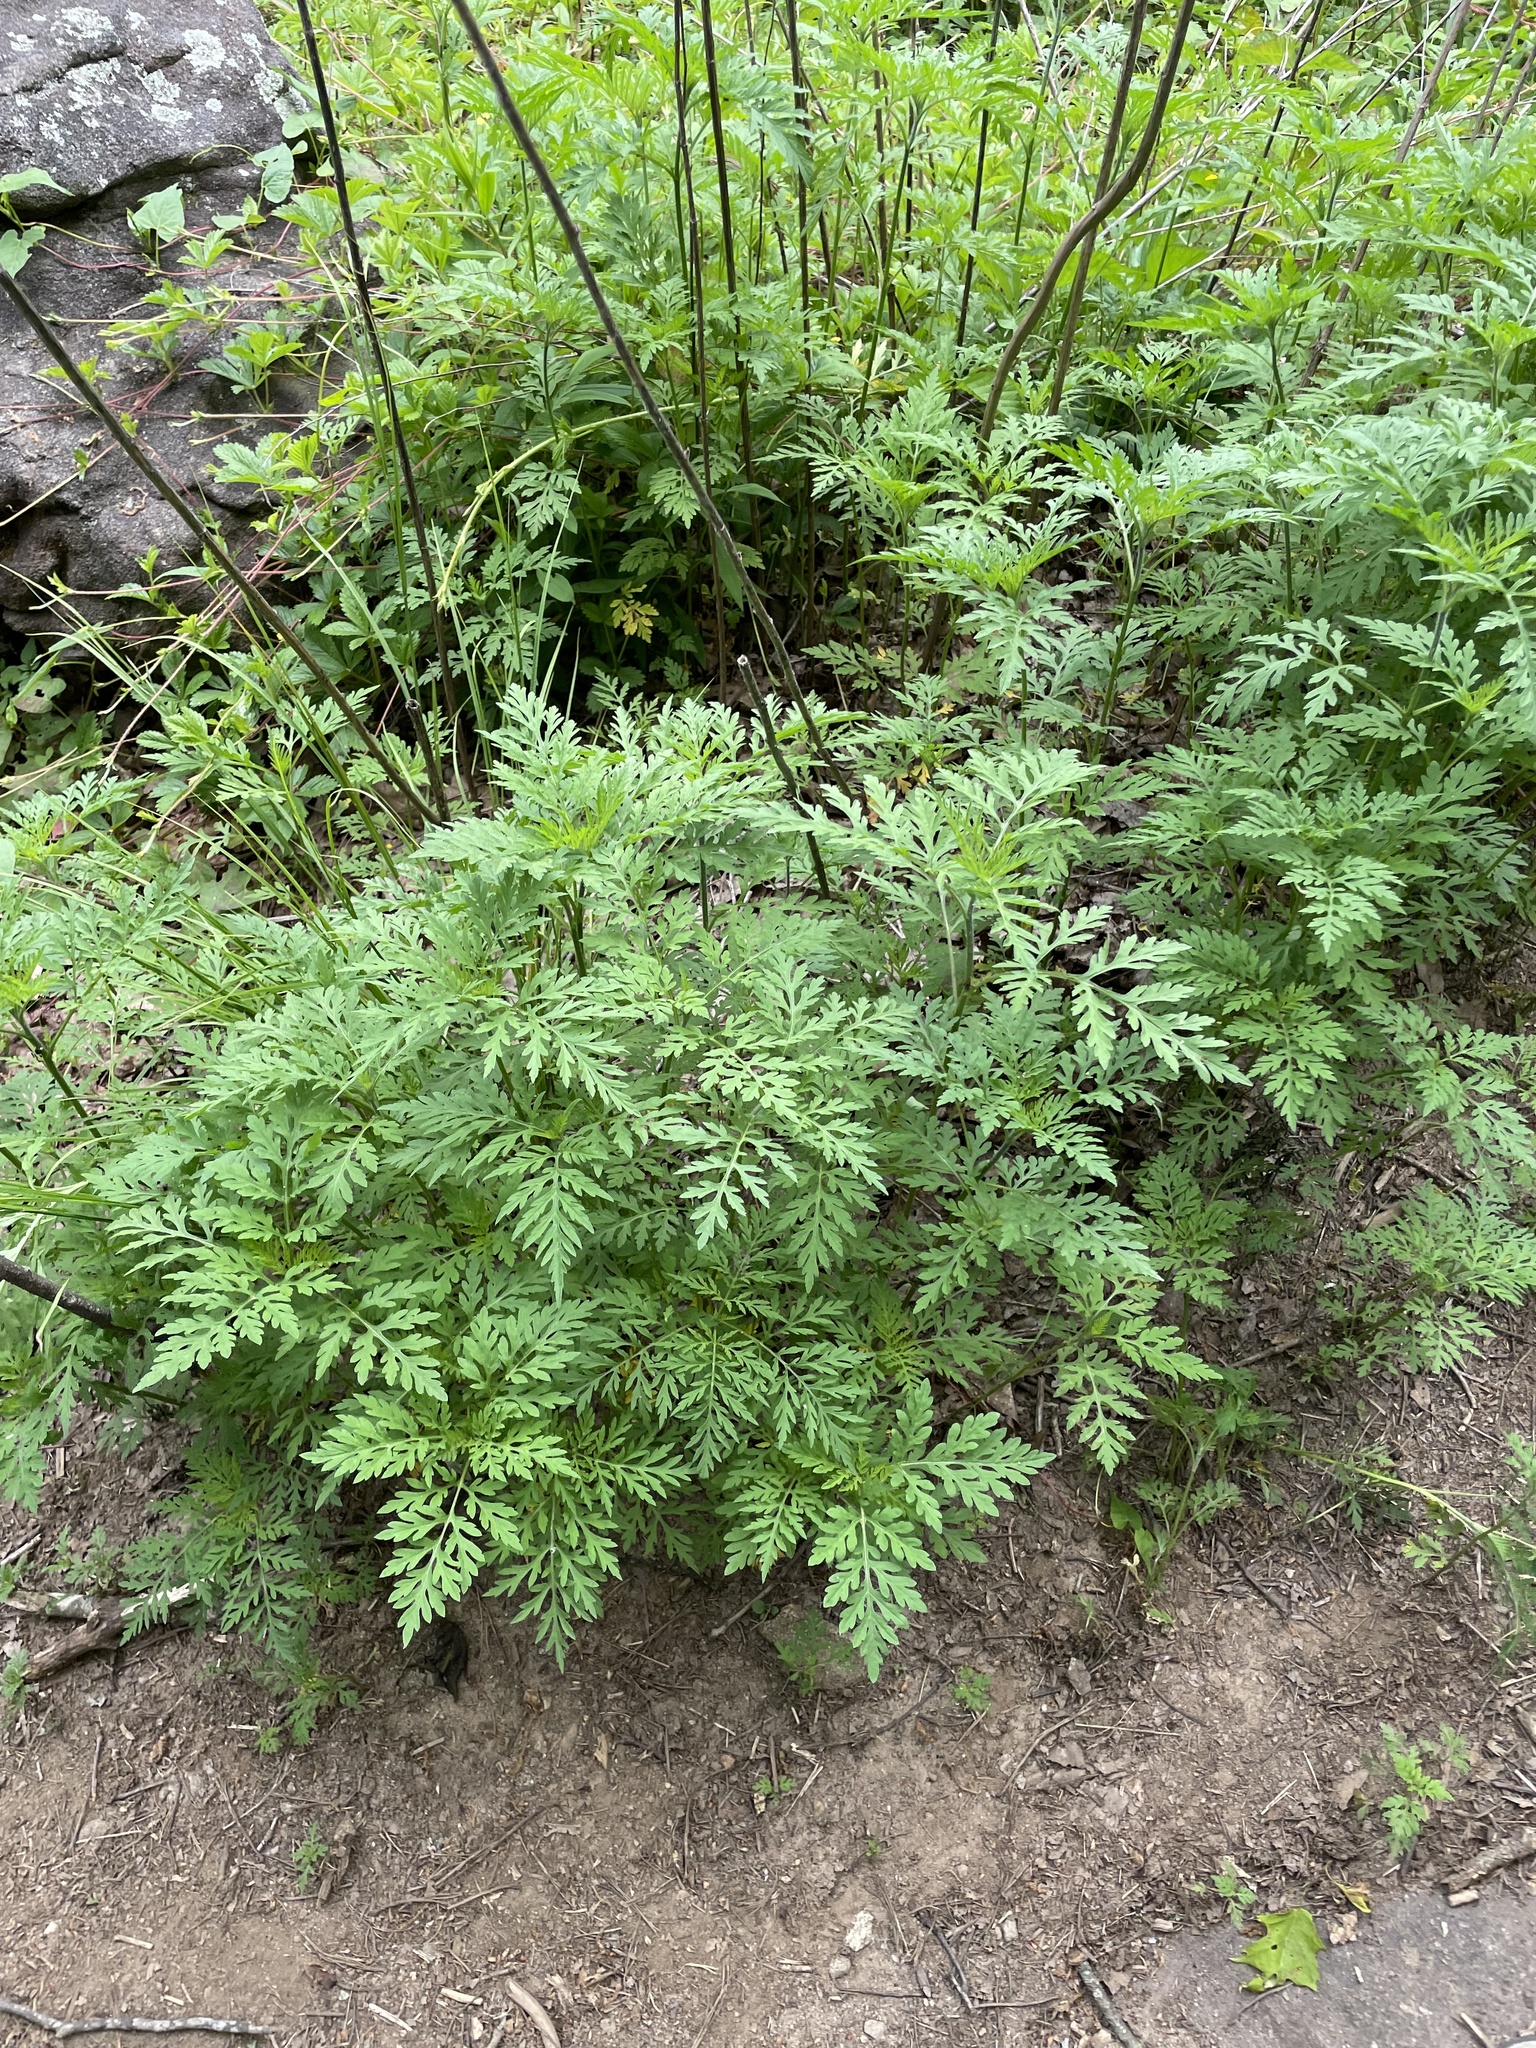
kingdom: Plantae
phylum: Tracheophyta
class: Magnoliopsida
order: Asterales
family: Asteraceae
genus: Ambrosia
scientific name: Ambrosia artemisiifolia
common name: Annual ragweed
